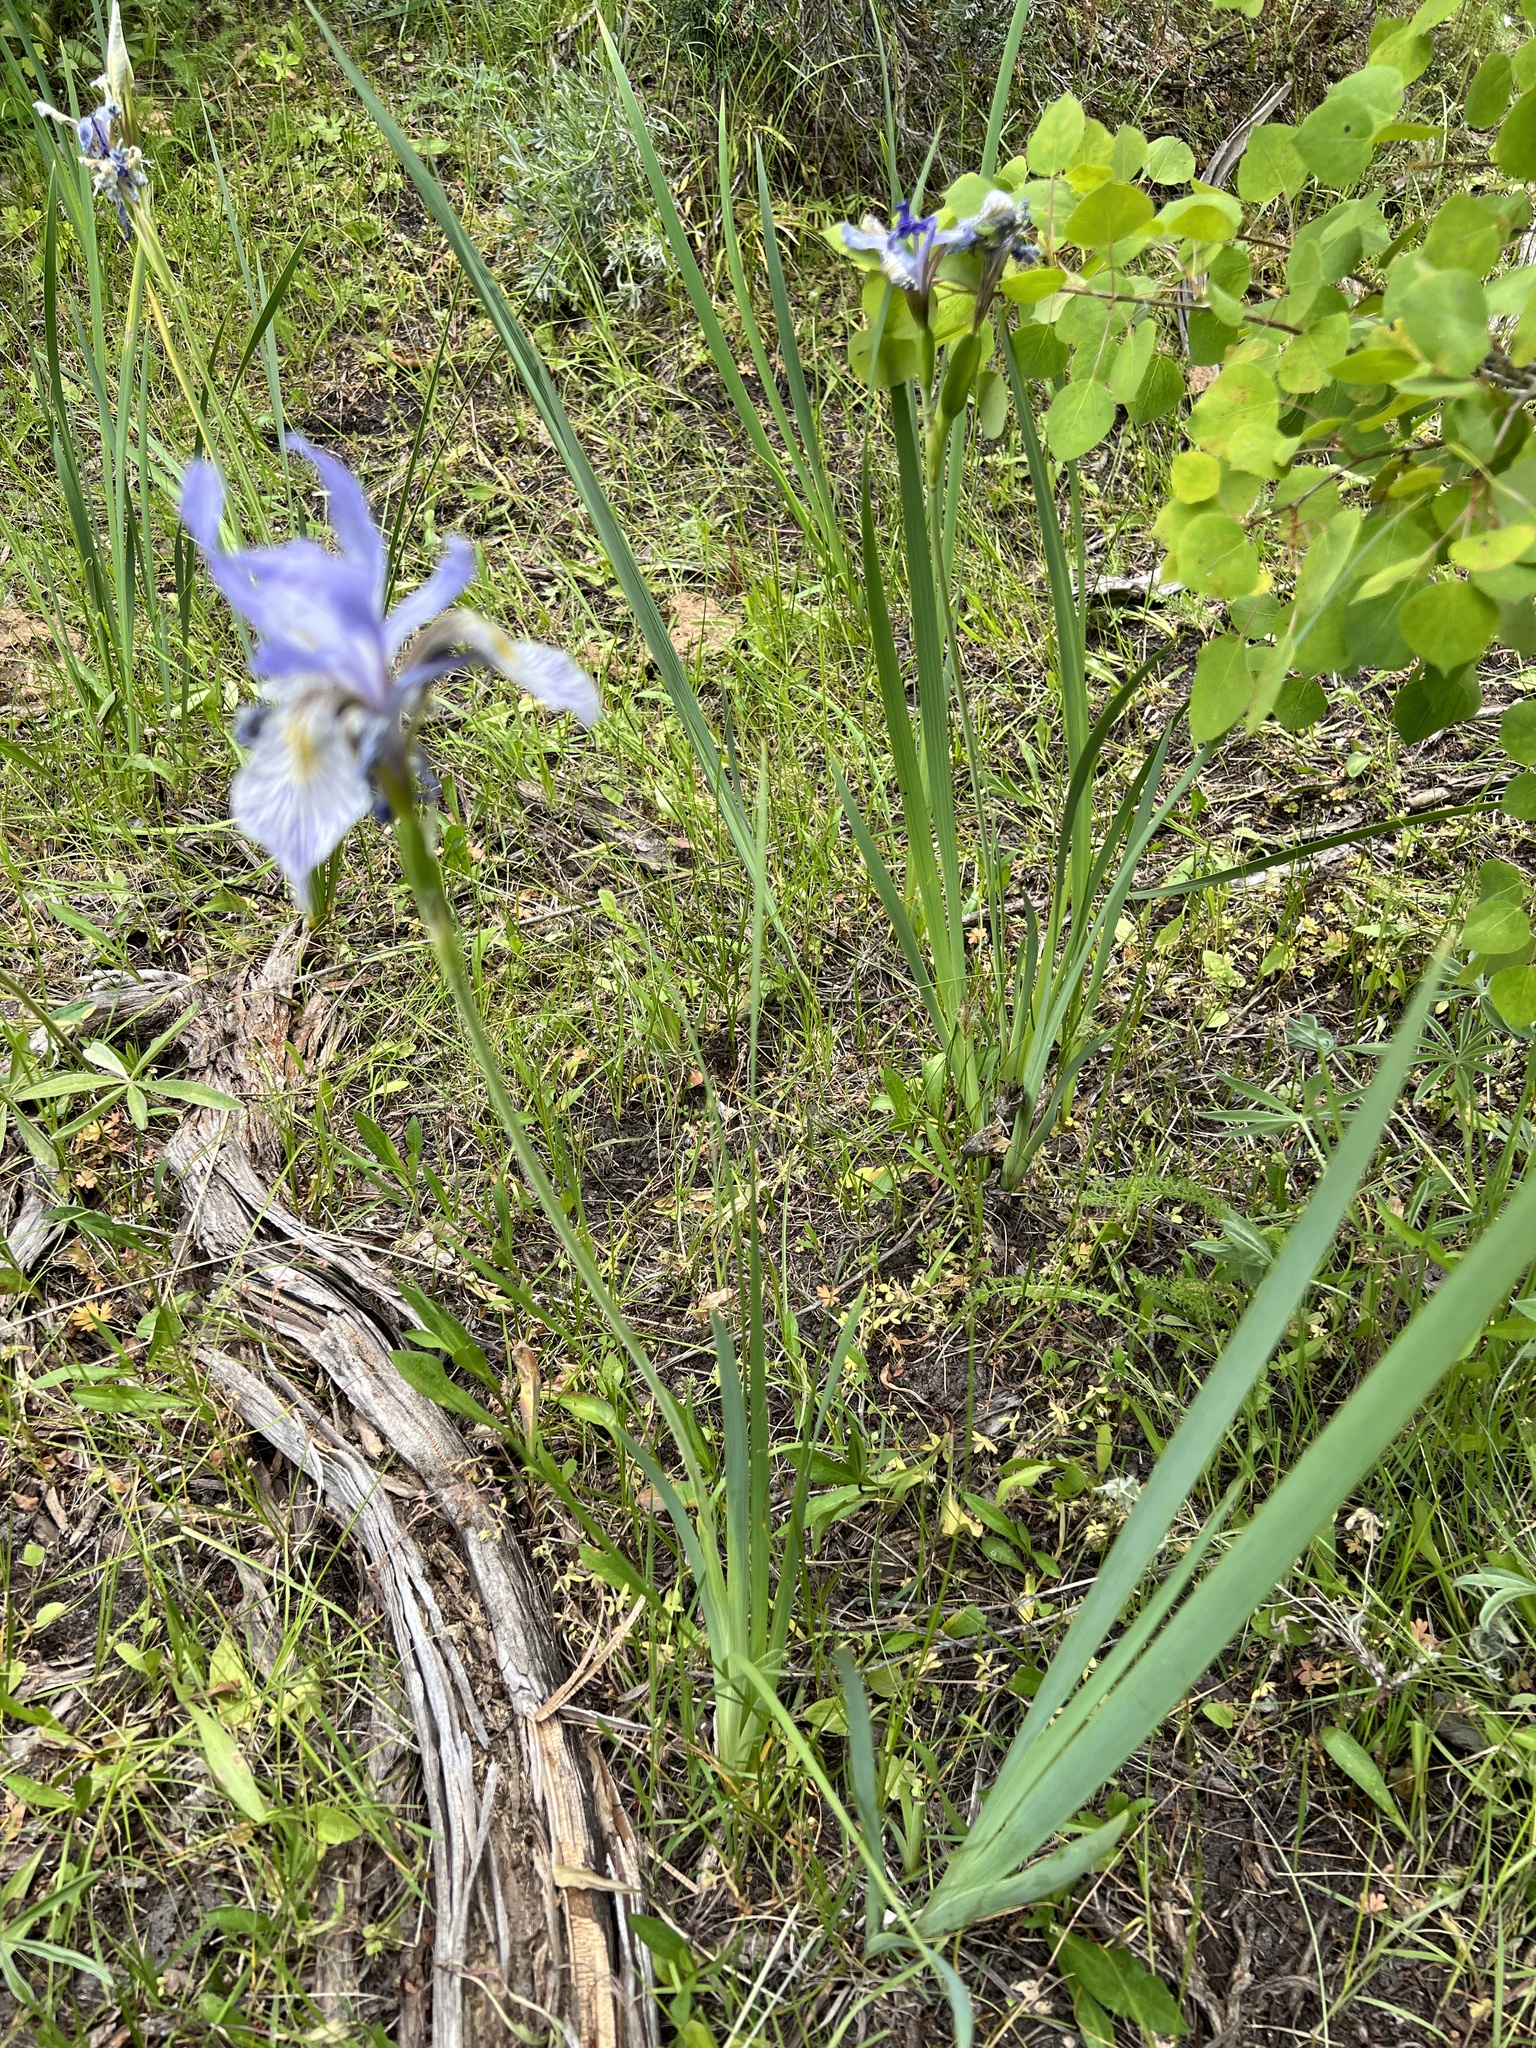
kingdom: Plantae
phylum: Tracheophyta
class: Liliopsida
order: Asparagales
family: Iridaceae
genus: Iris
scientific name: Iris missouriensis
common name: Rocky mountain iris
